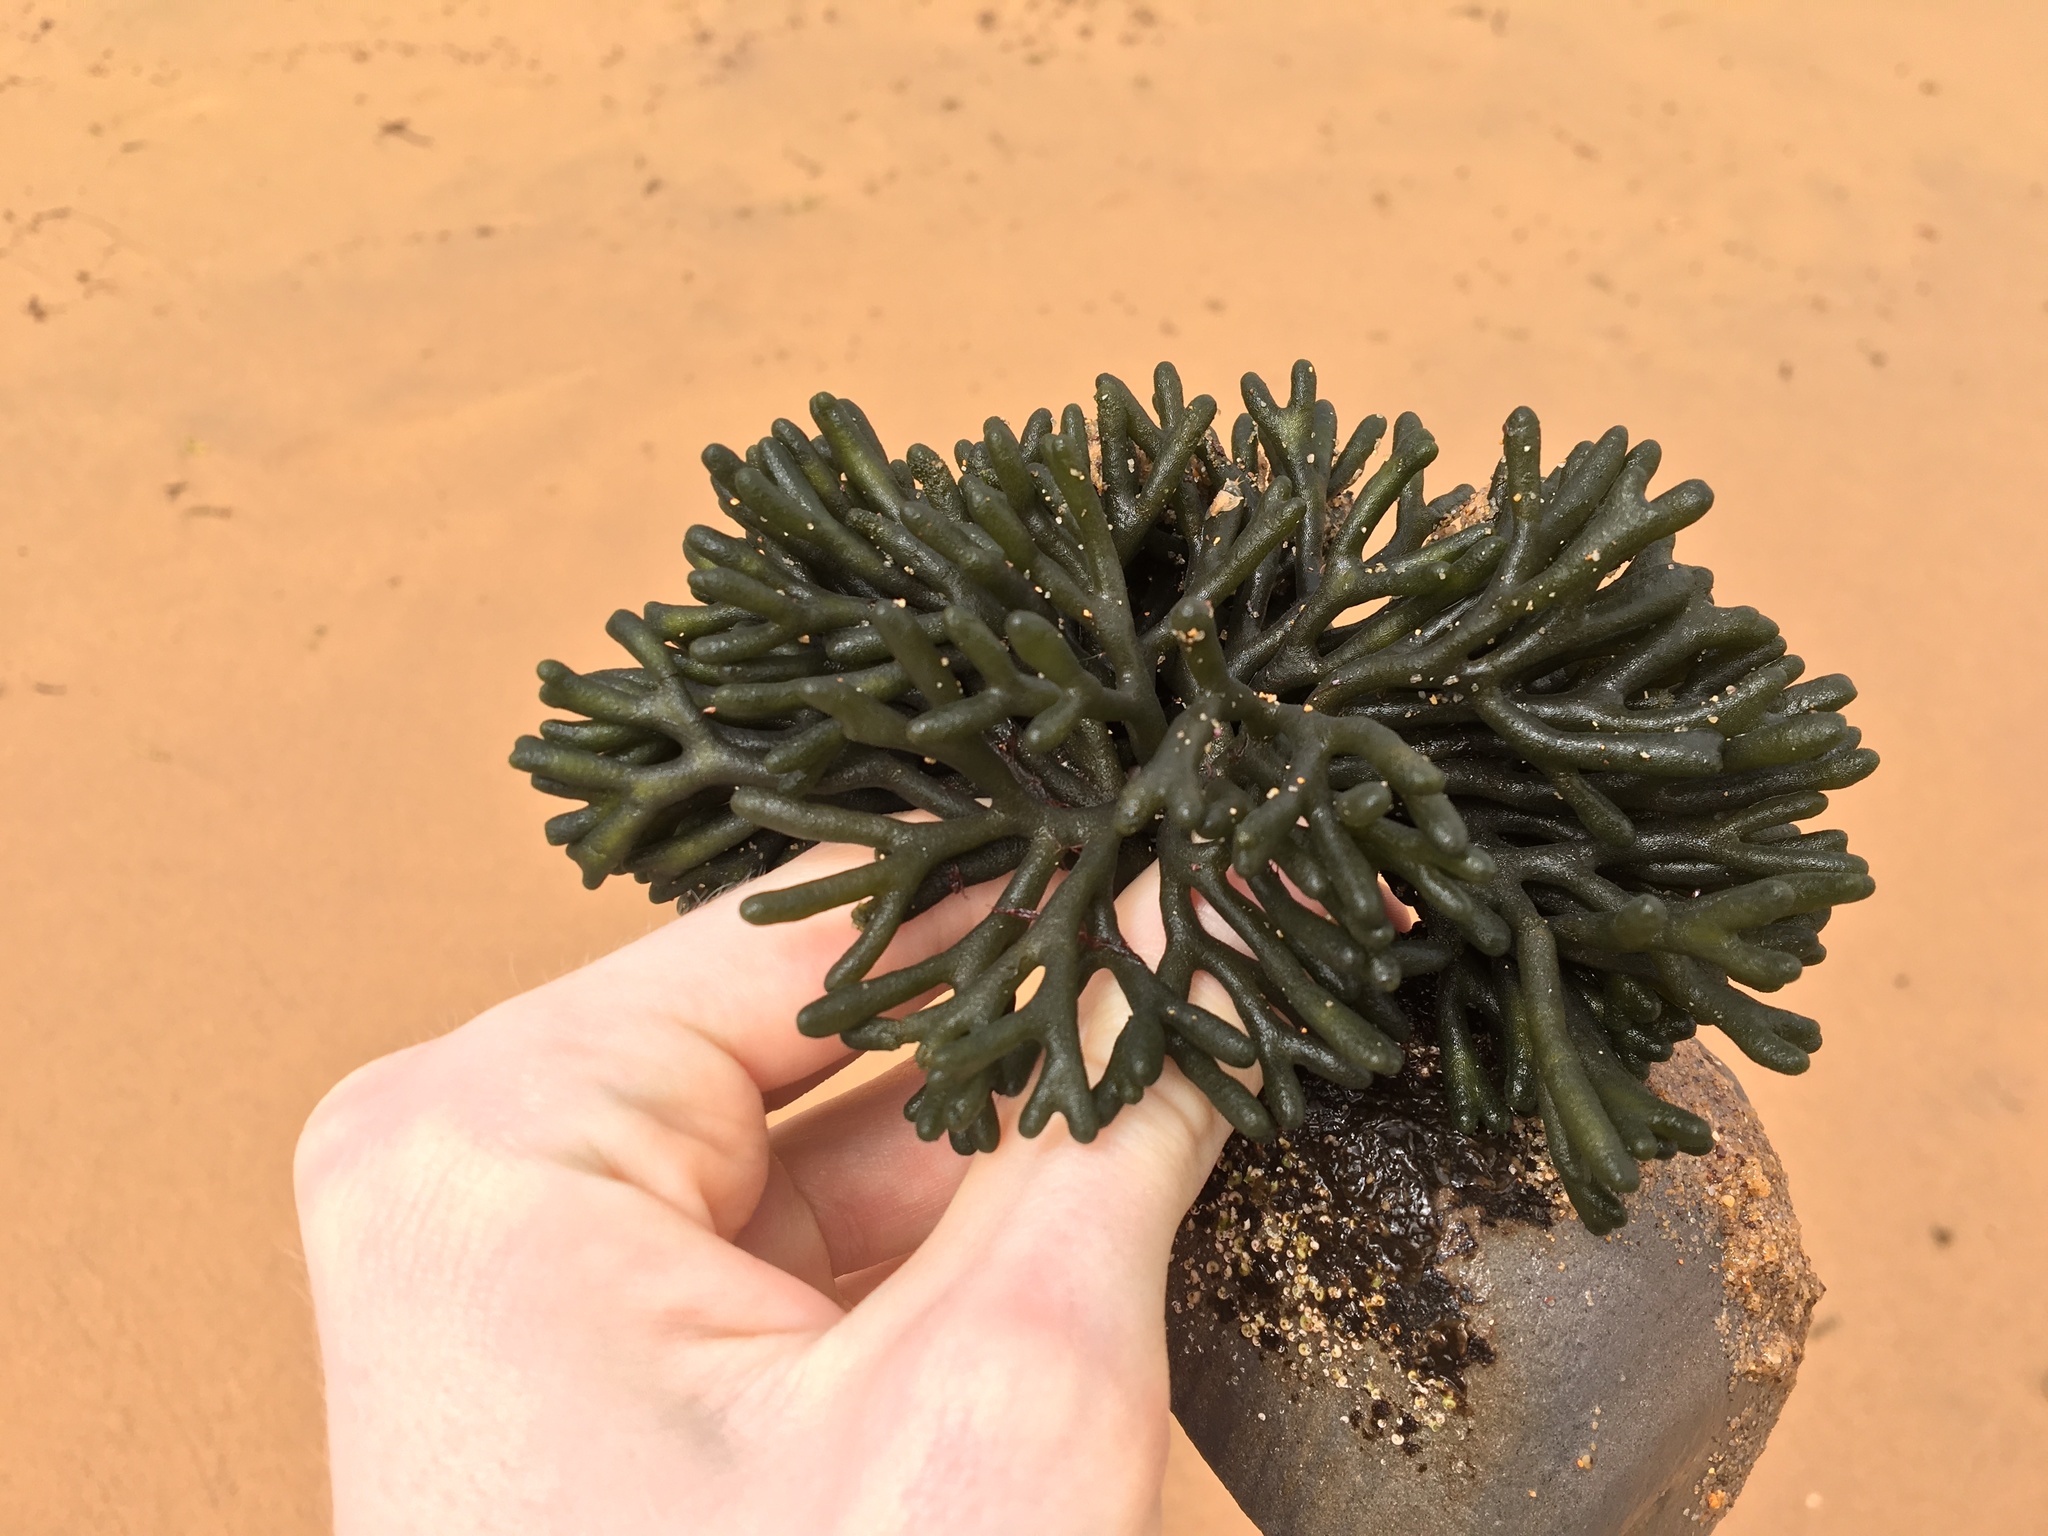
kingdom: Plantae
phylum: Chlorophyta
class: Ulvophyceae
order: Bryopsidales
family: Codiaceae
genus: Codium
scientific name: Codium fragile
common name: Dead man's fingers
